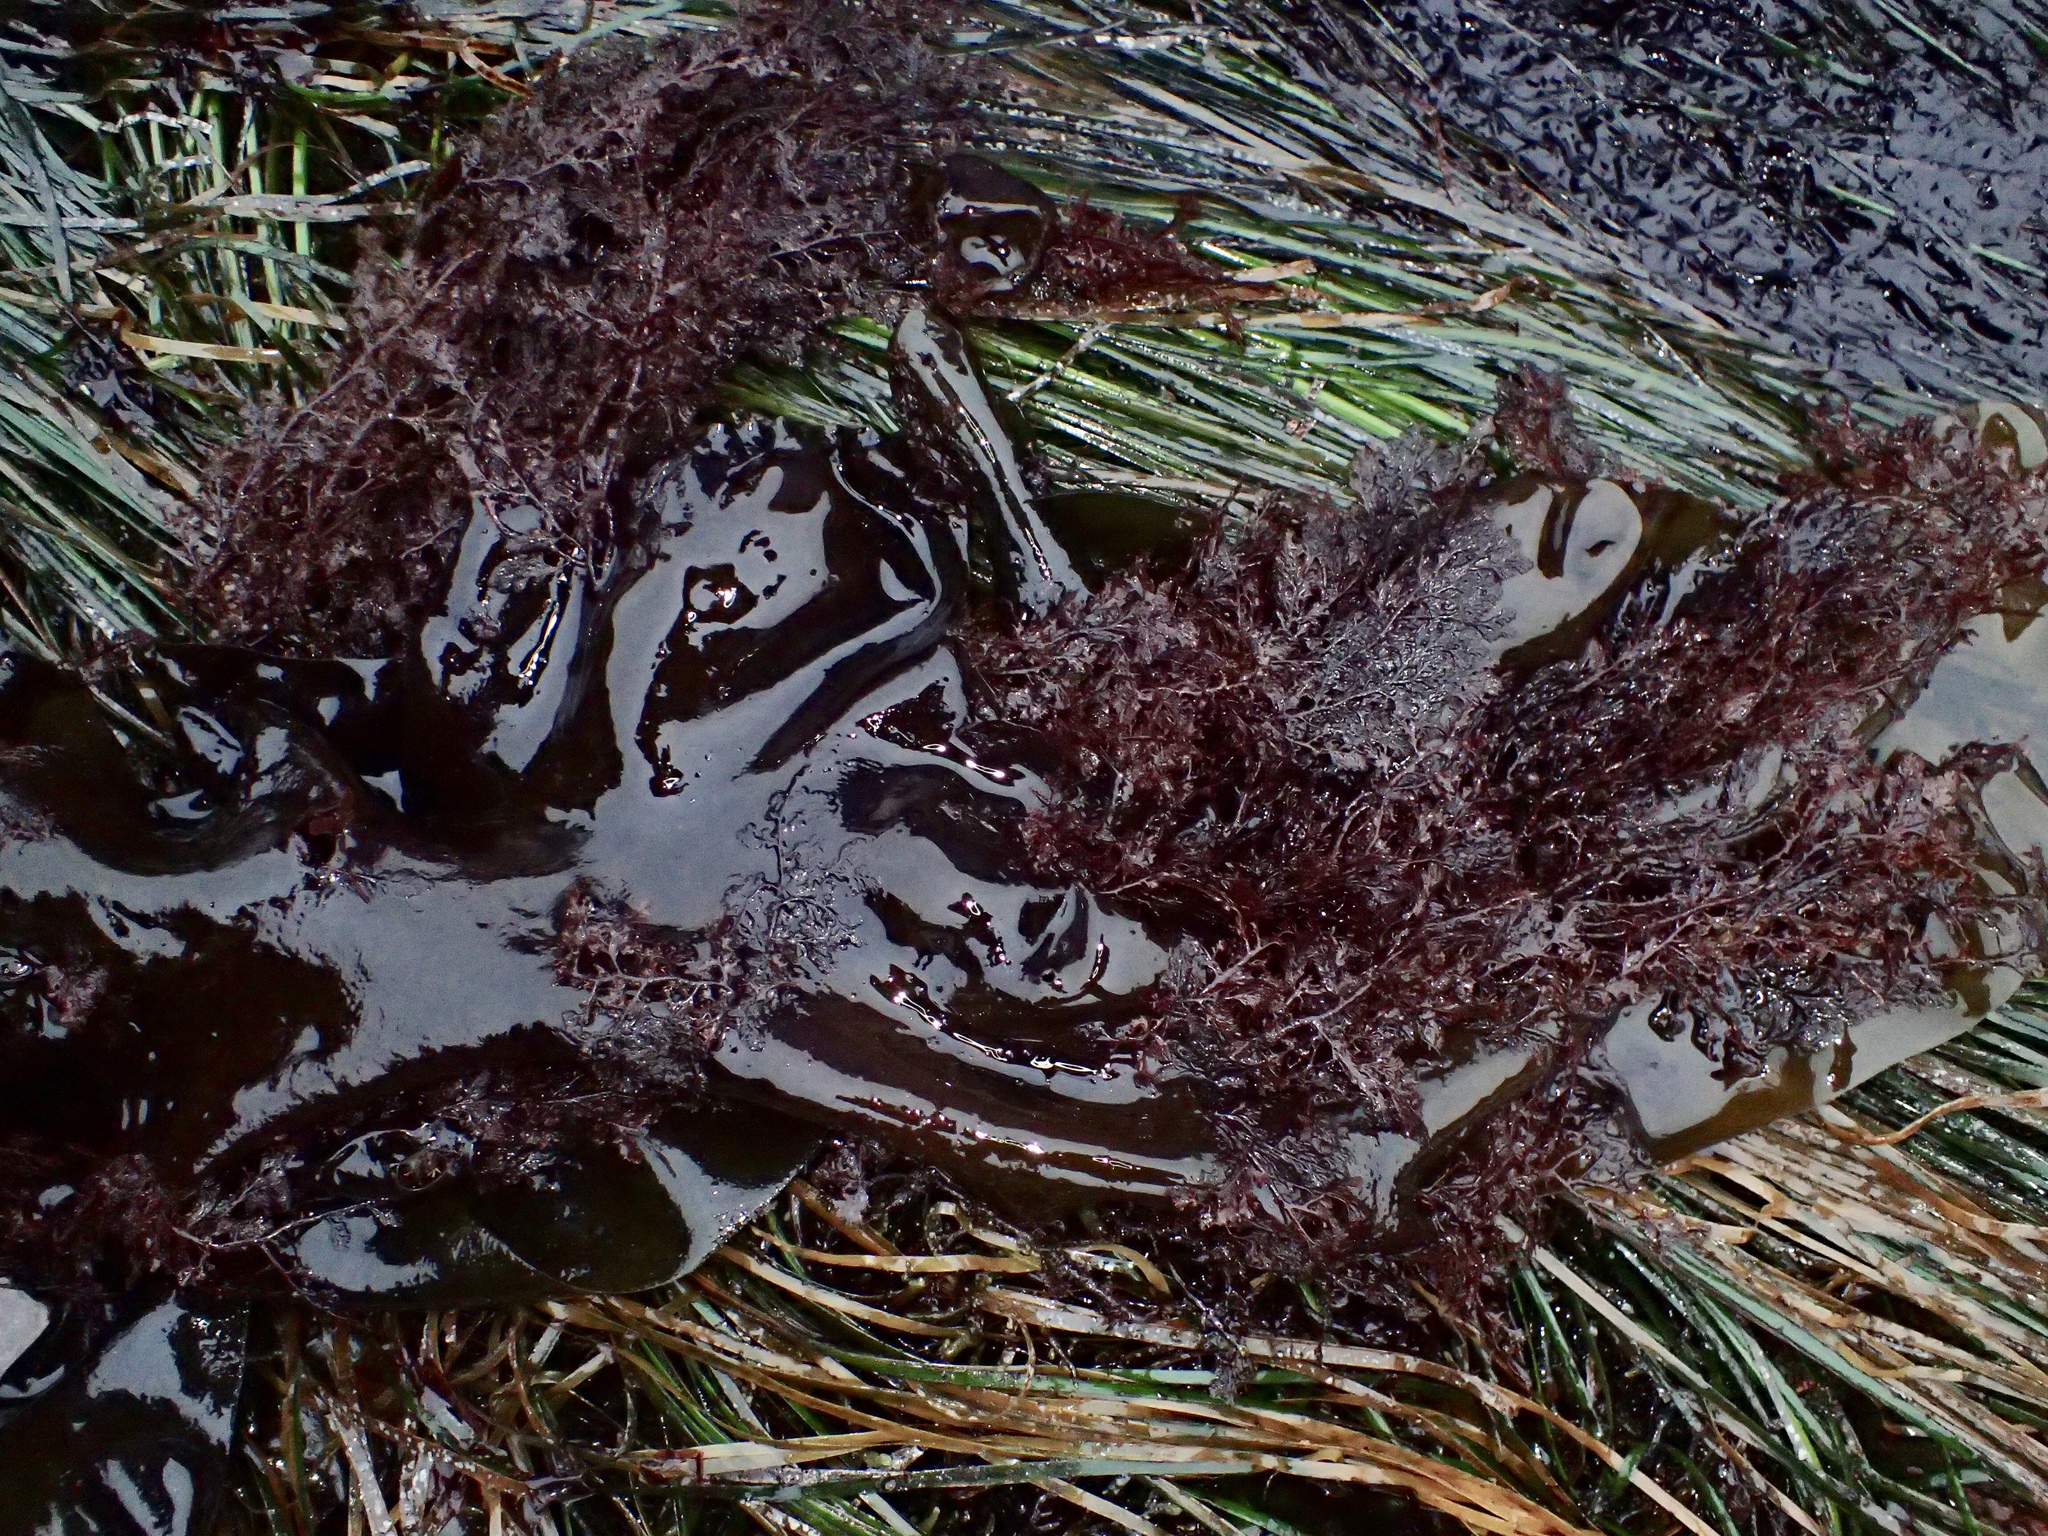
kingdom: Plantae
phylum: Rhodophyta
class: Florideophyceae
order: Ceramiales
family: Ceramiaceae
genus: Microcladia
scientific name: Microcladia coulteri
